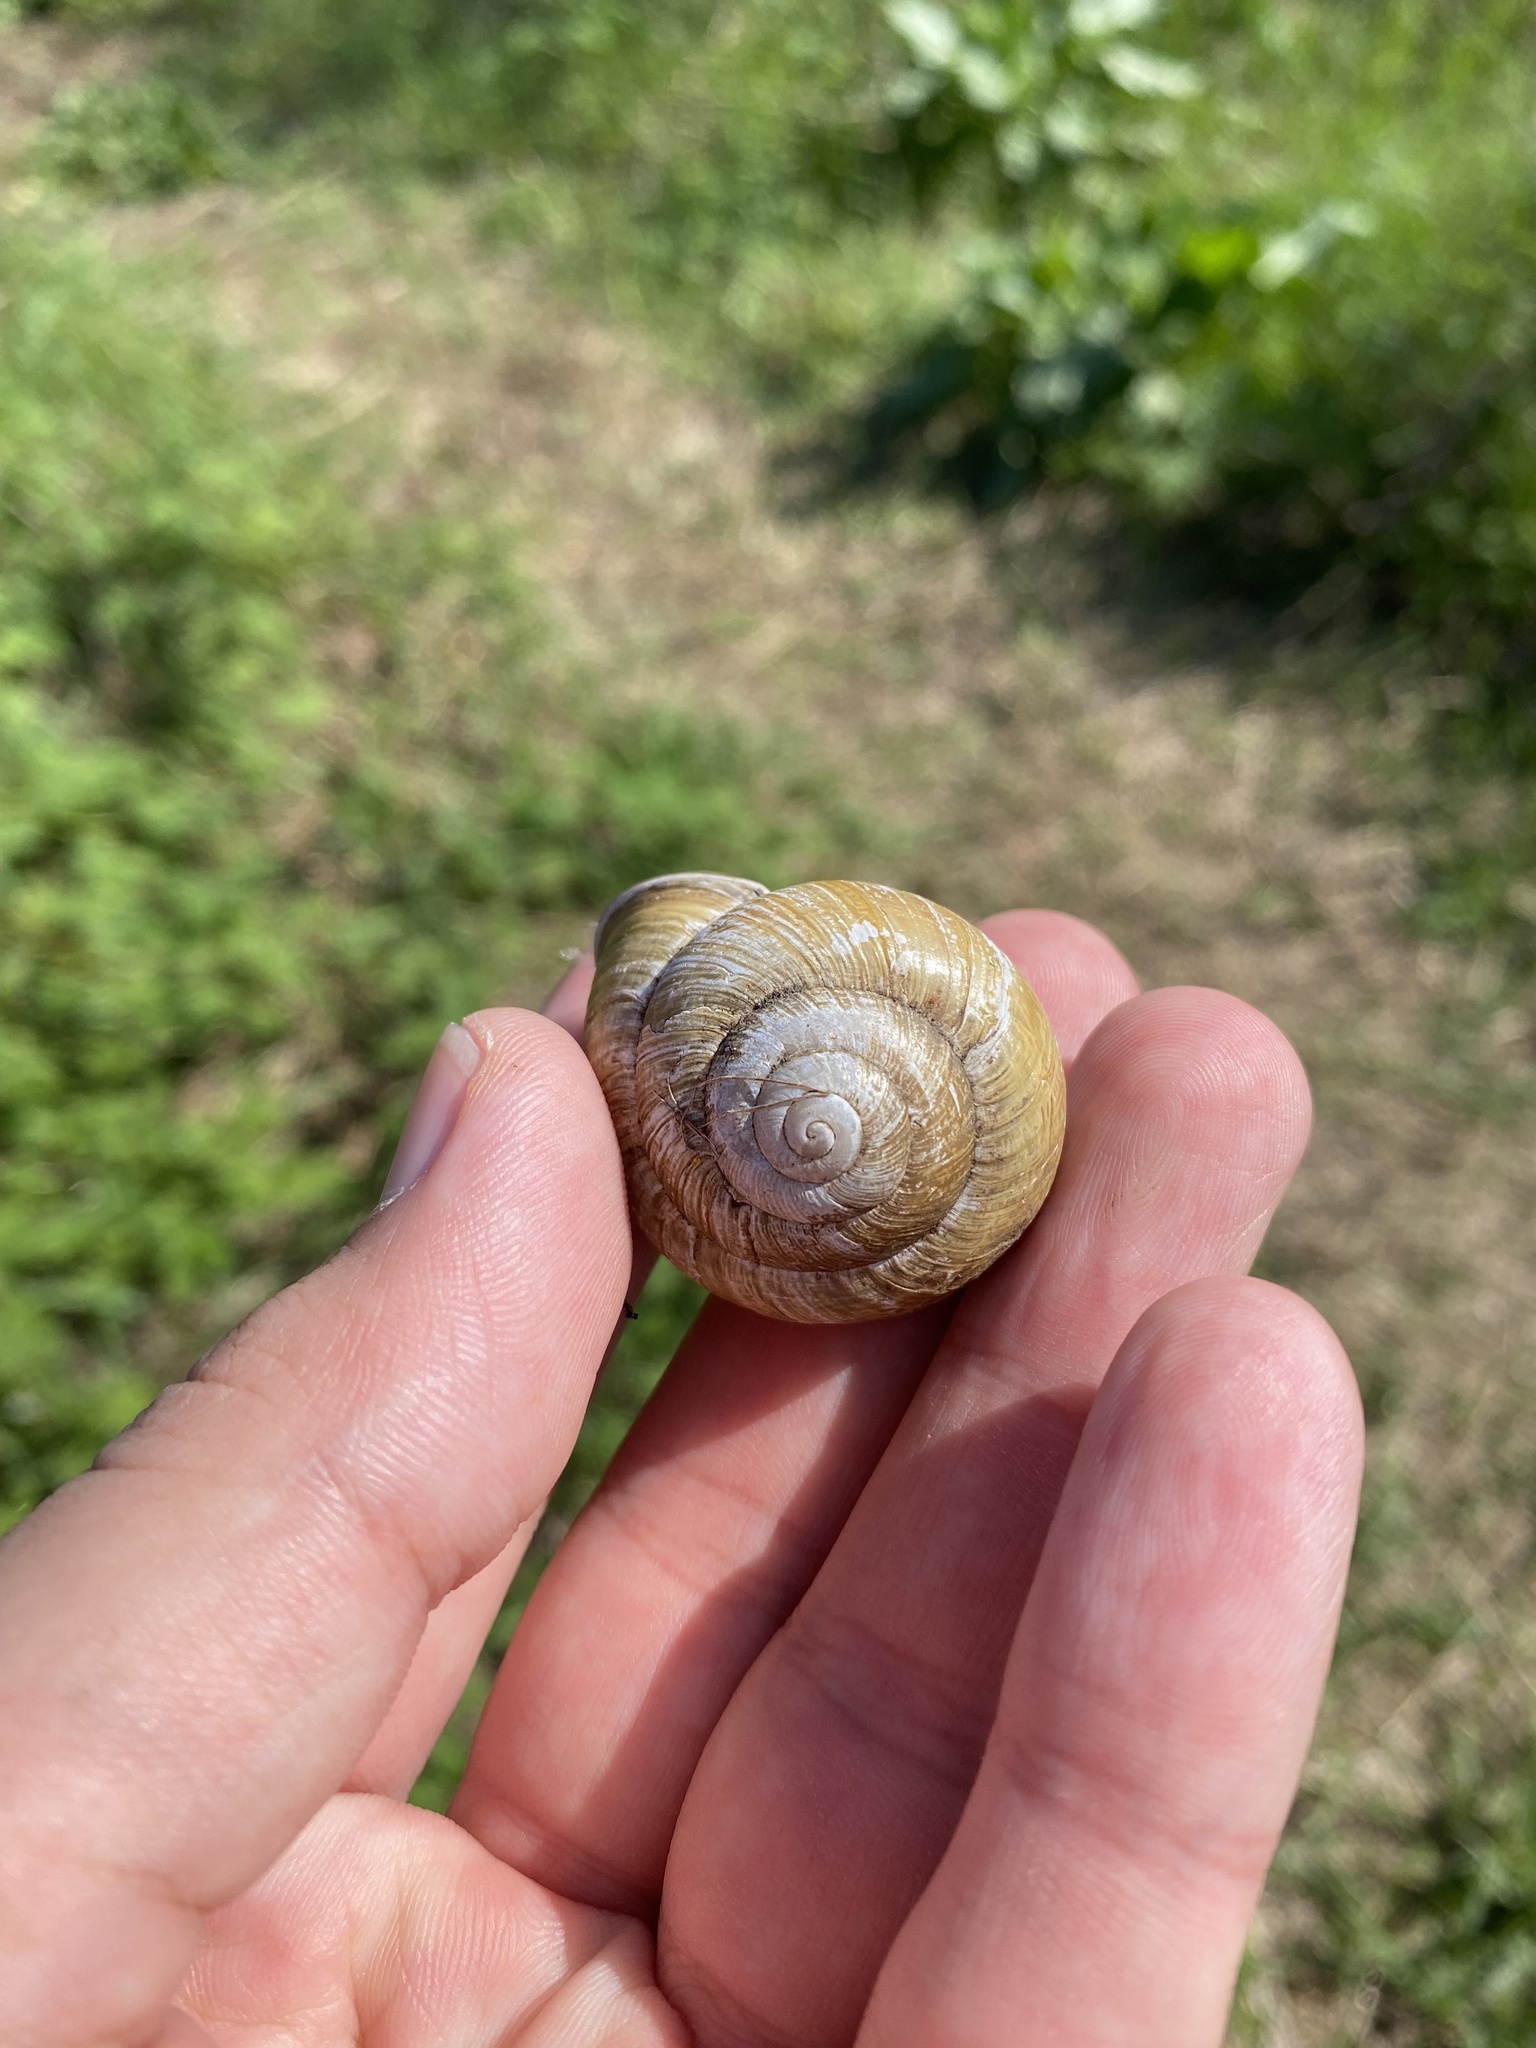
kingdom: Animalia
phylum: Mollusca
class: Gastropoda
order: Stylommatophora
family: Helicidae
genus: Caucasotachea
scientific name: Caucasotachea atrolabiata
